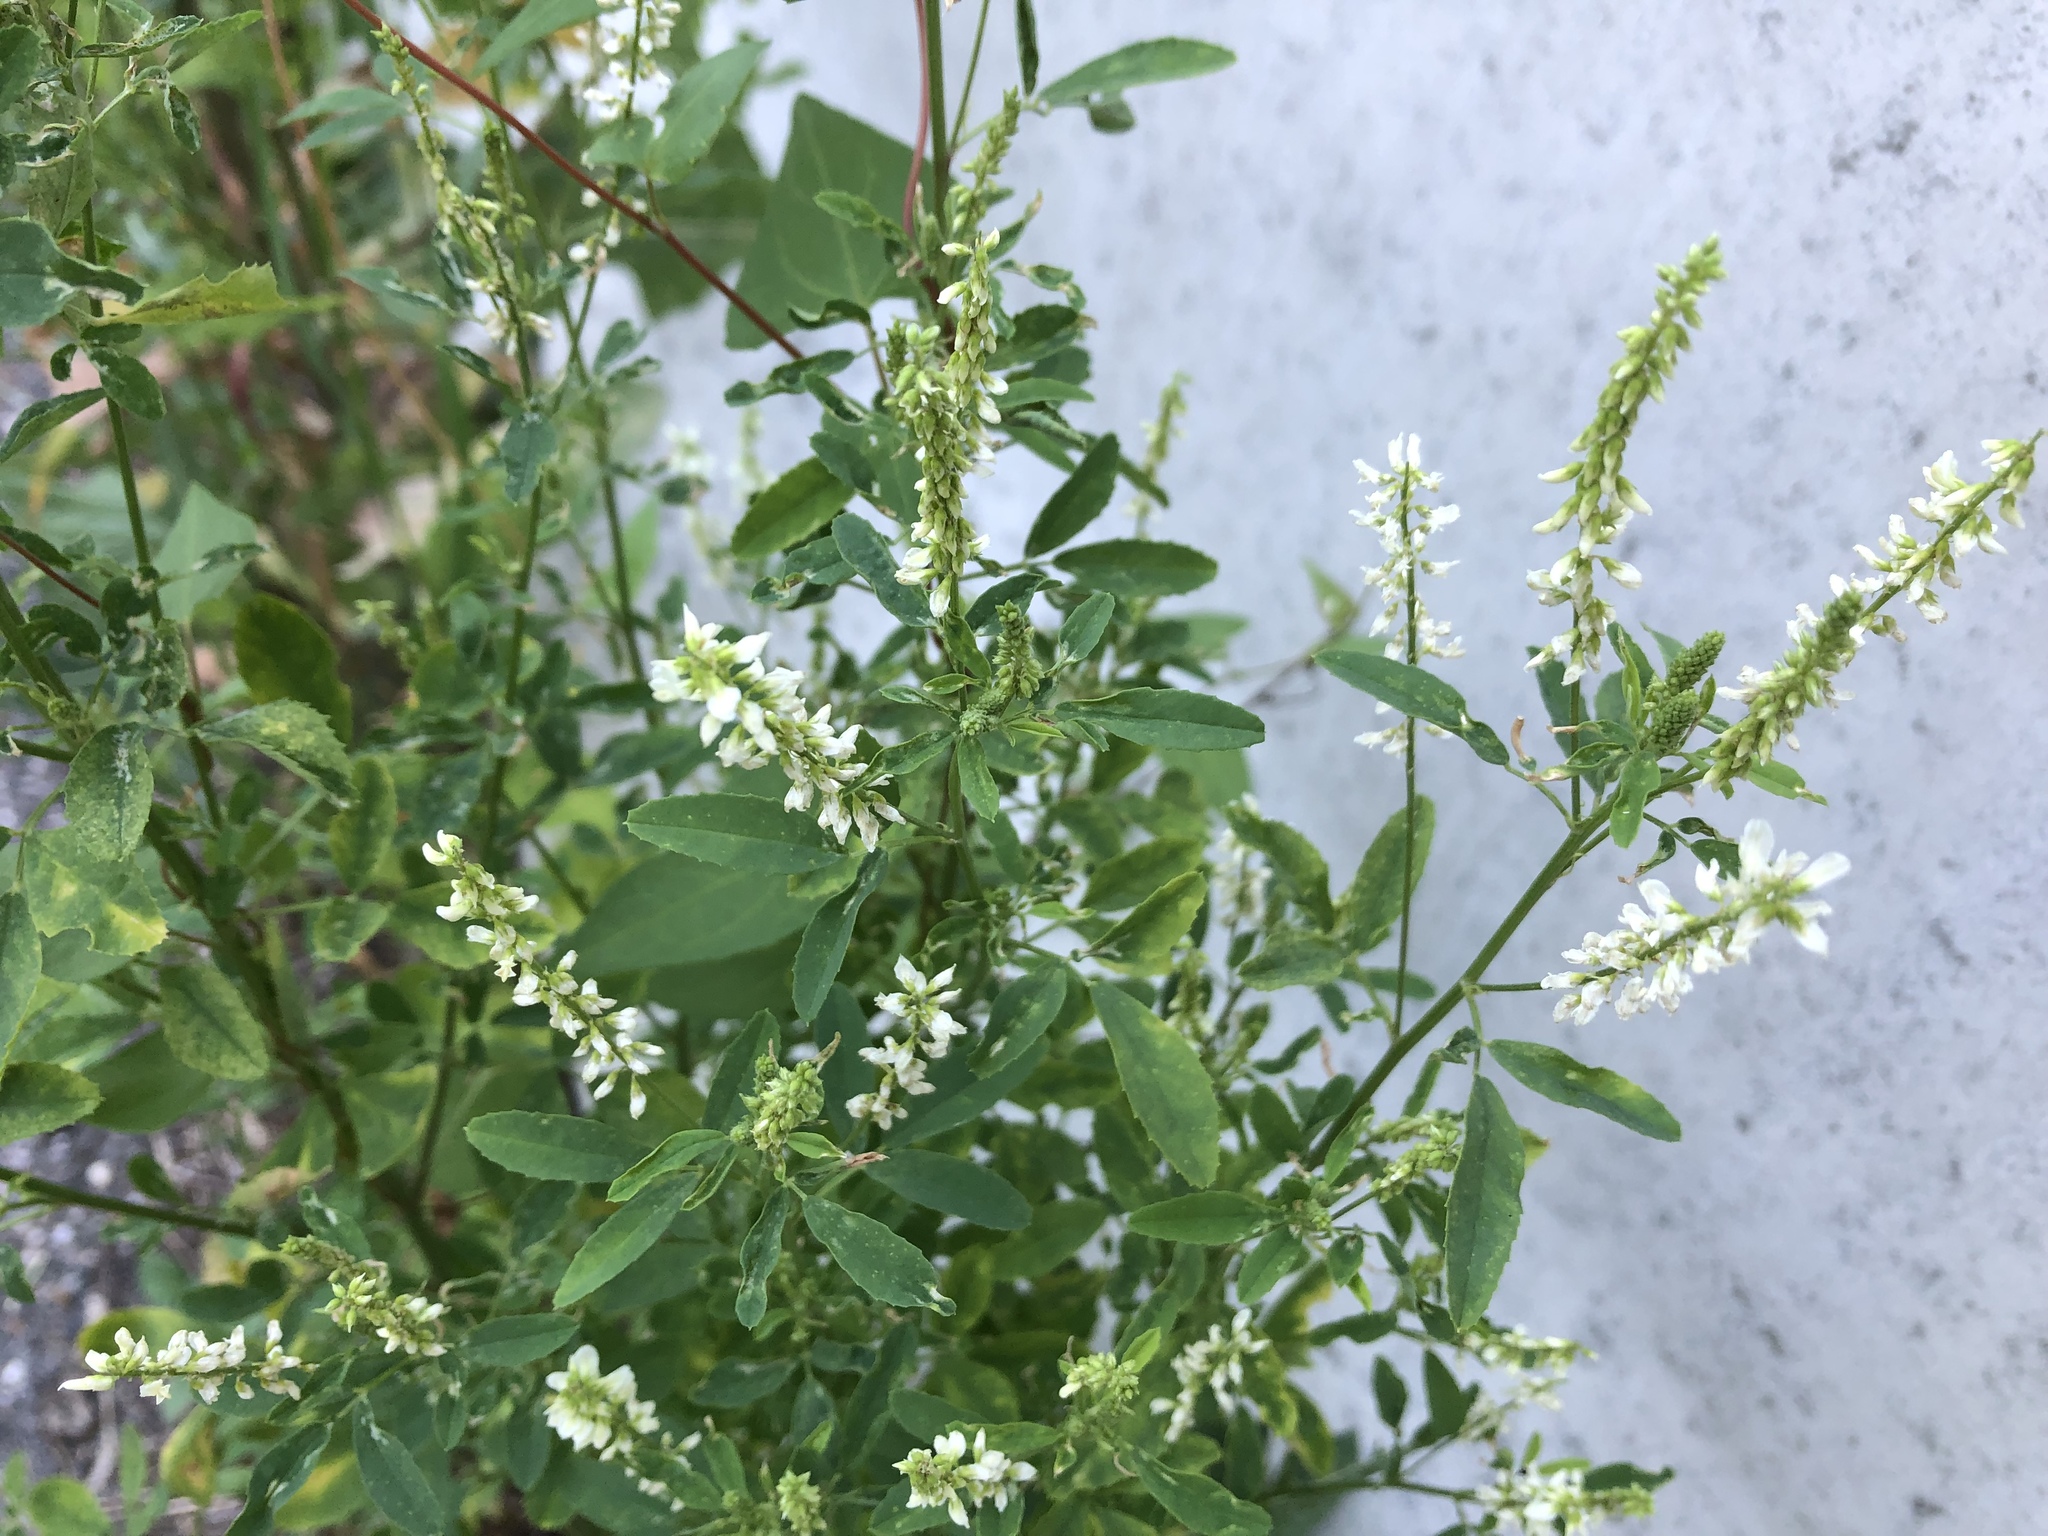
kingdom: Plantae
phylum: Tracheophyta
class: Magnoliopsida
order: Fabales
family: Fabaceae
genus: Melilotus
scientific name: Melilotus albus
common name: White melilot
